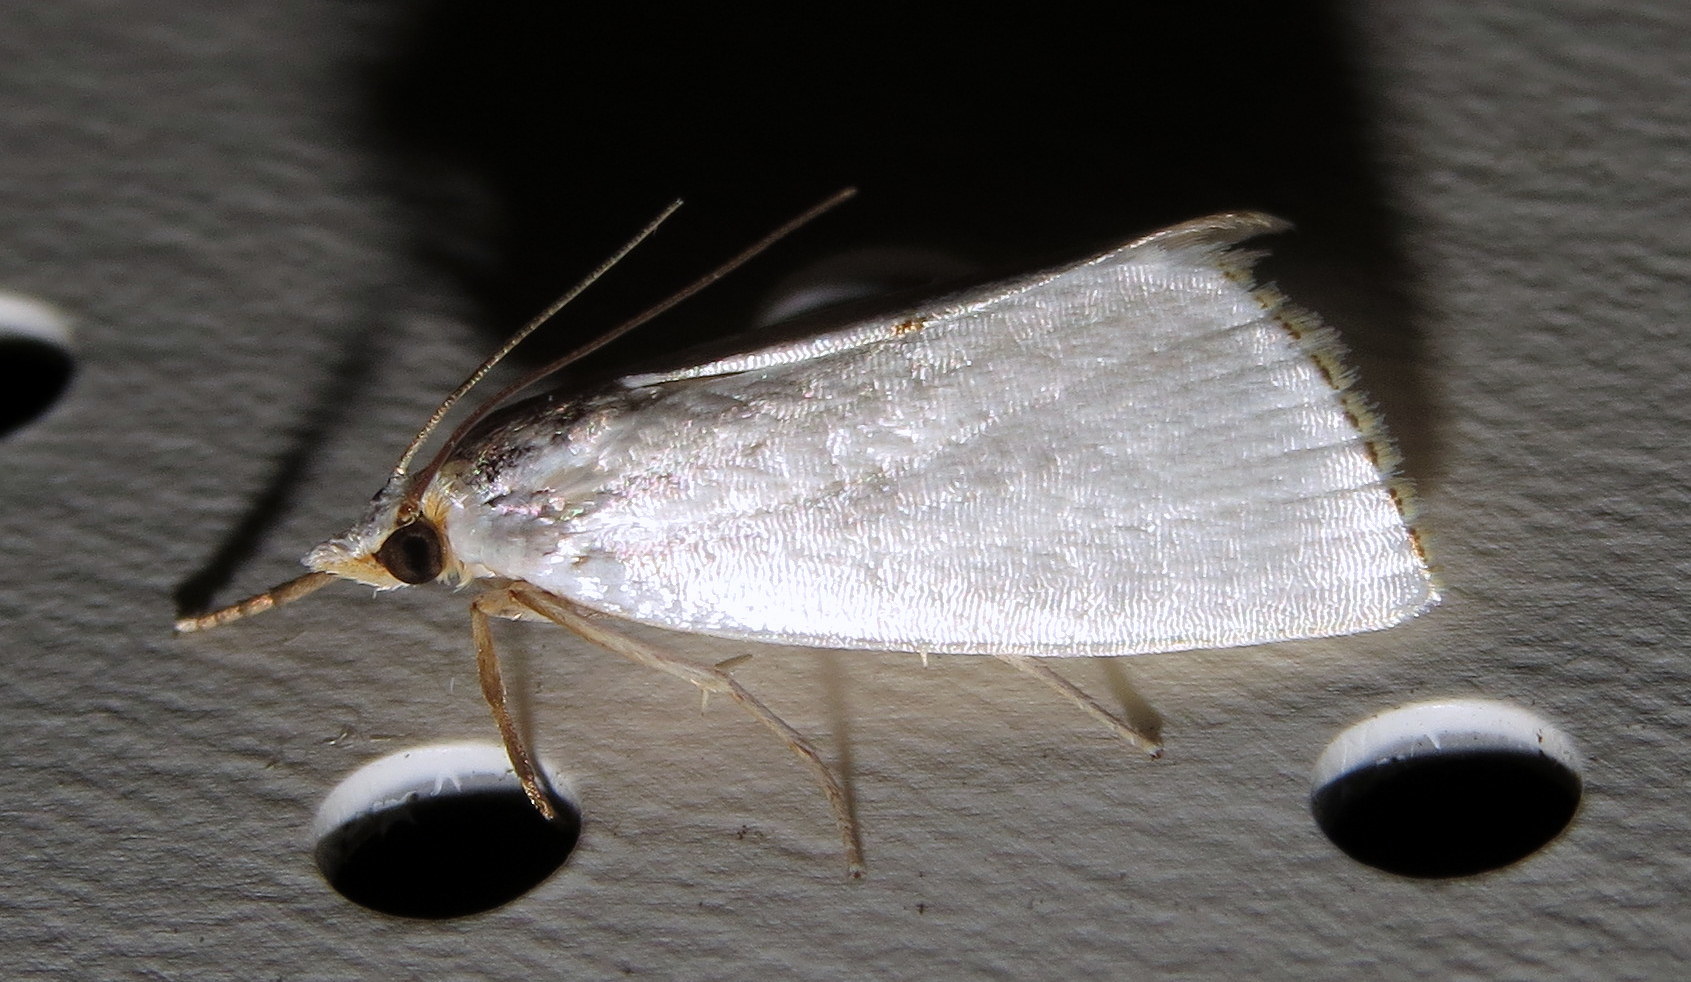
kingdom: Animalia
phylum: Arthropoda
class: Insecta
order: Lepidoptera
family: Crambidae
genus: Argyria
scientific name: Argyria nivalis
